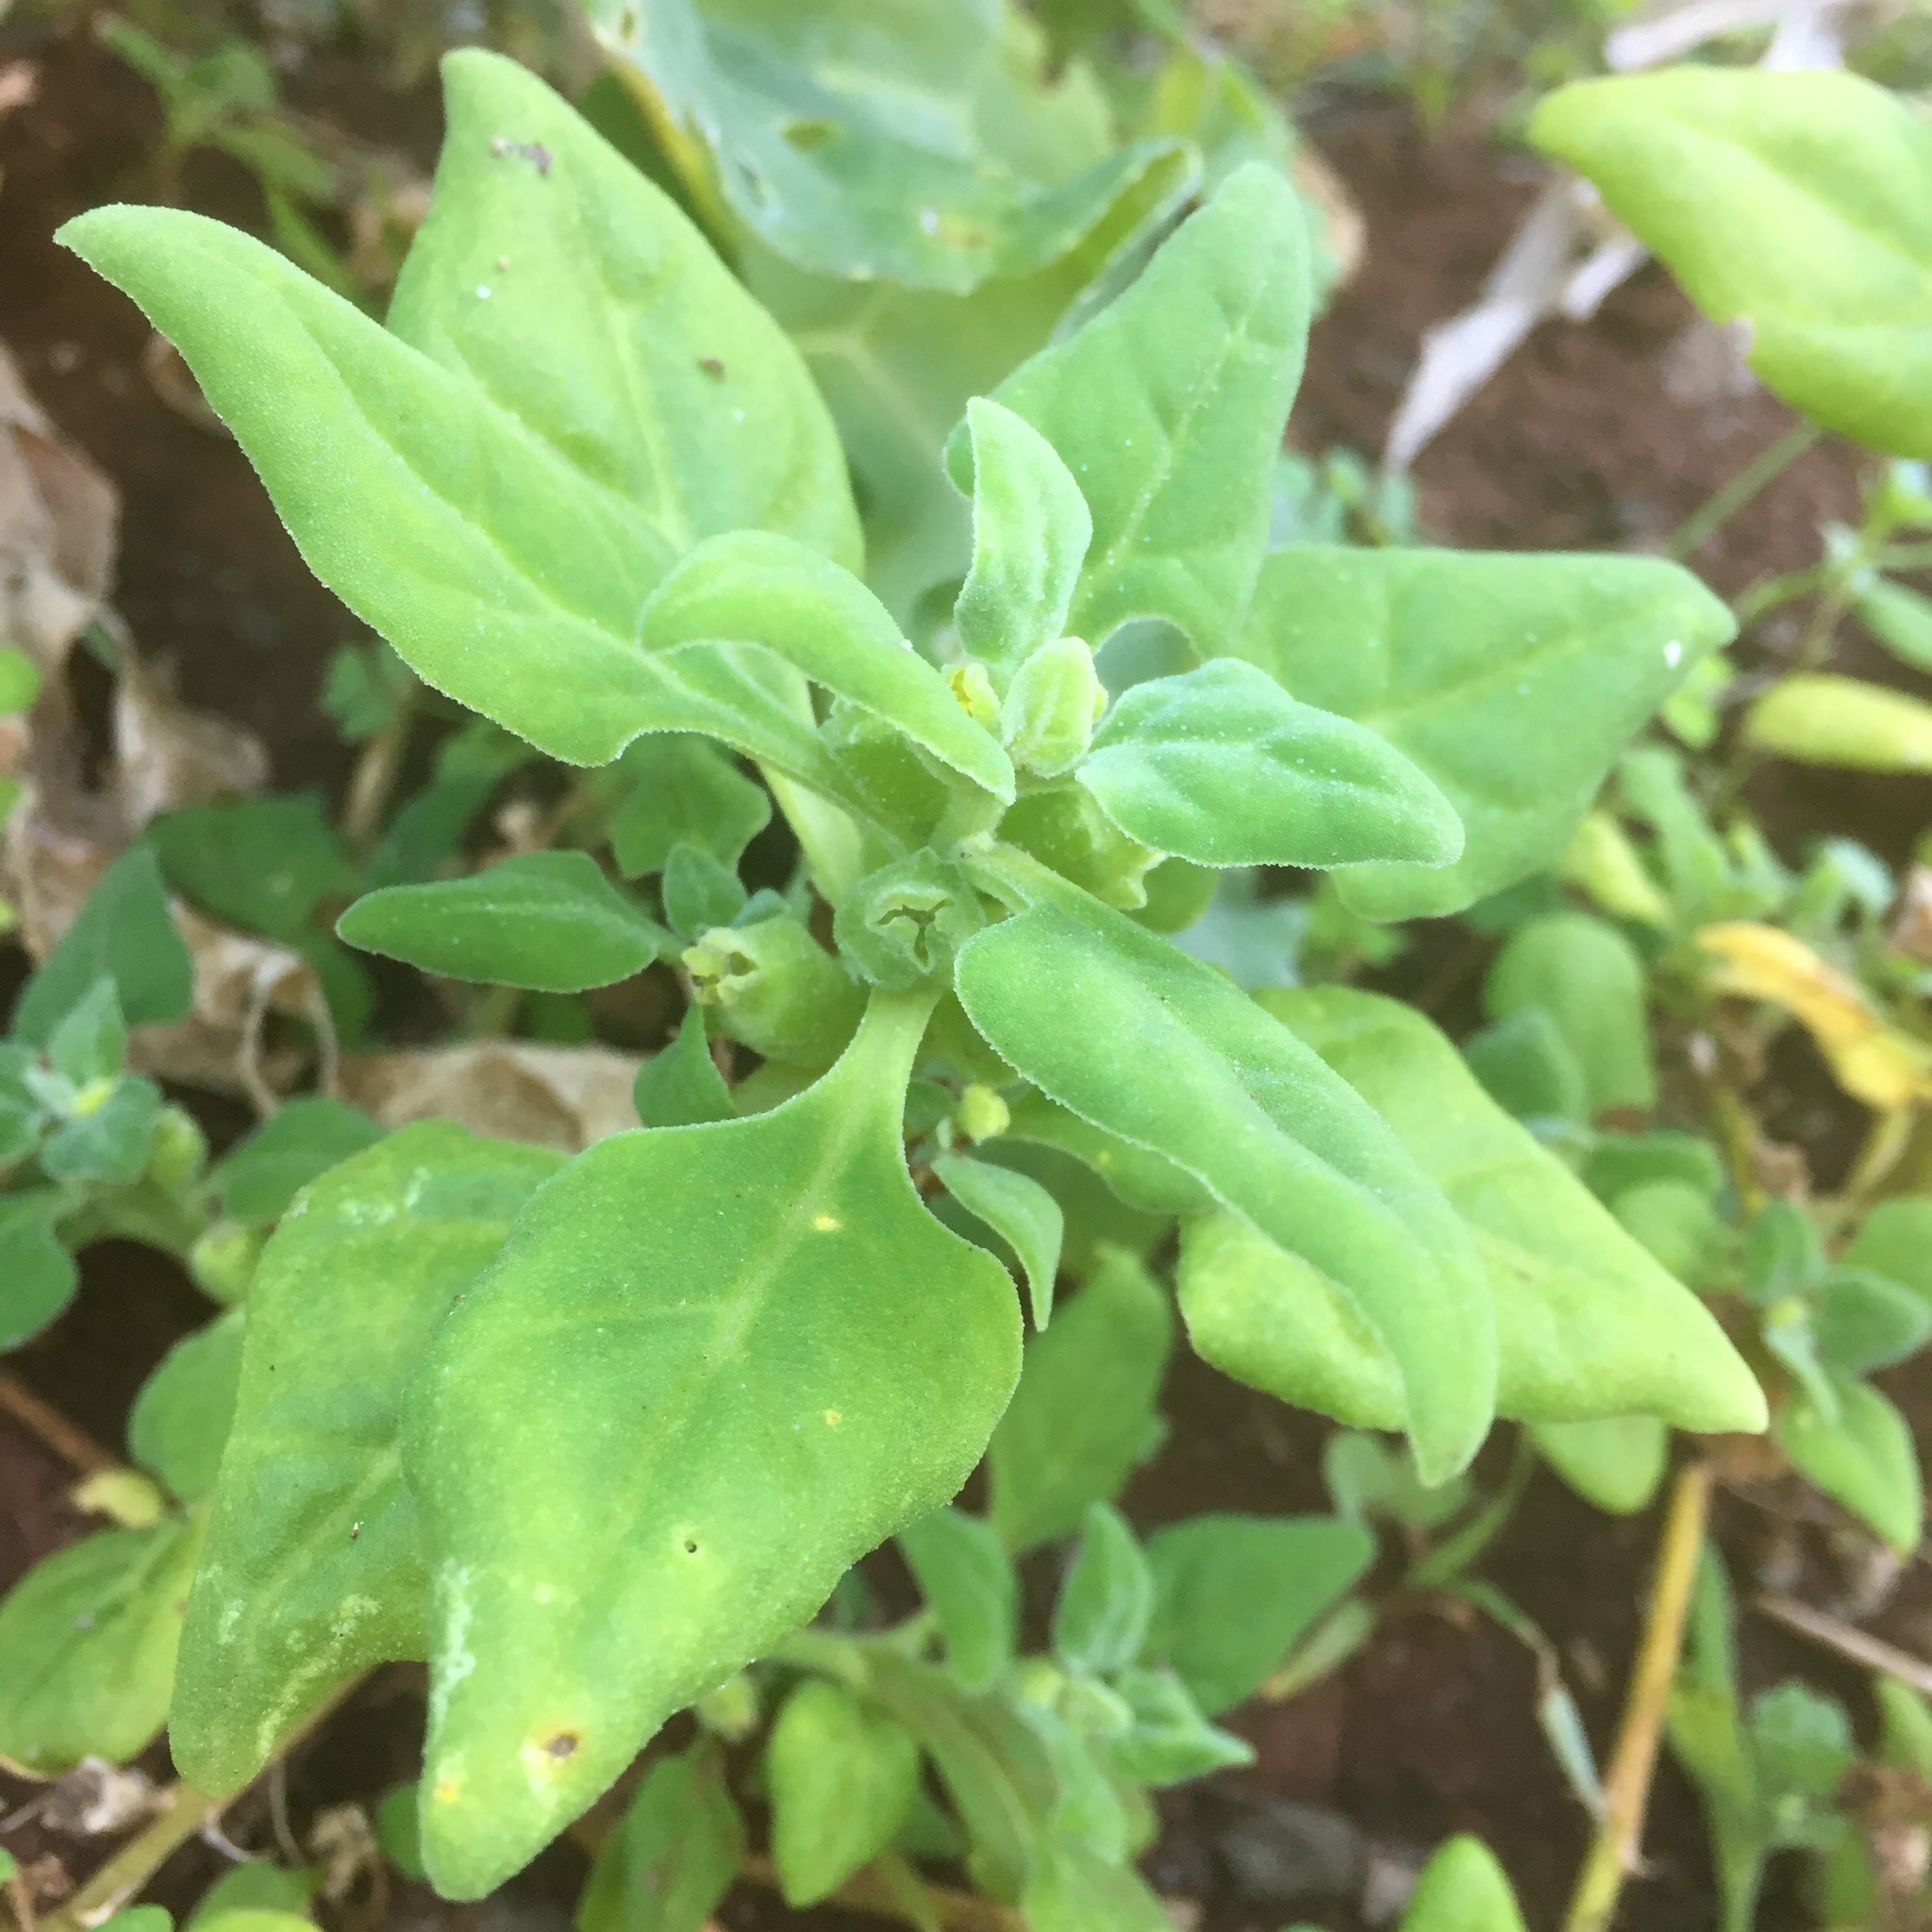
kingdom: Plantae
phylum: Tracheophyta
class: Magnoliopsida
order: Caryophyllales
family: Aizoaceae
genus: Tetragonia
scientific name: Tetragonia tetragonoides
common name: New zealand-spinach
